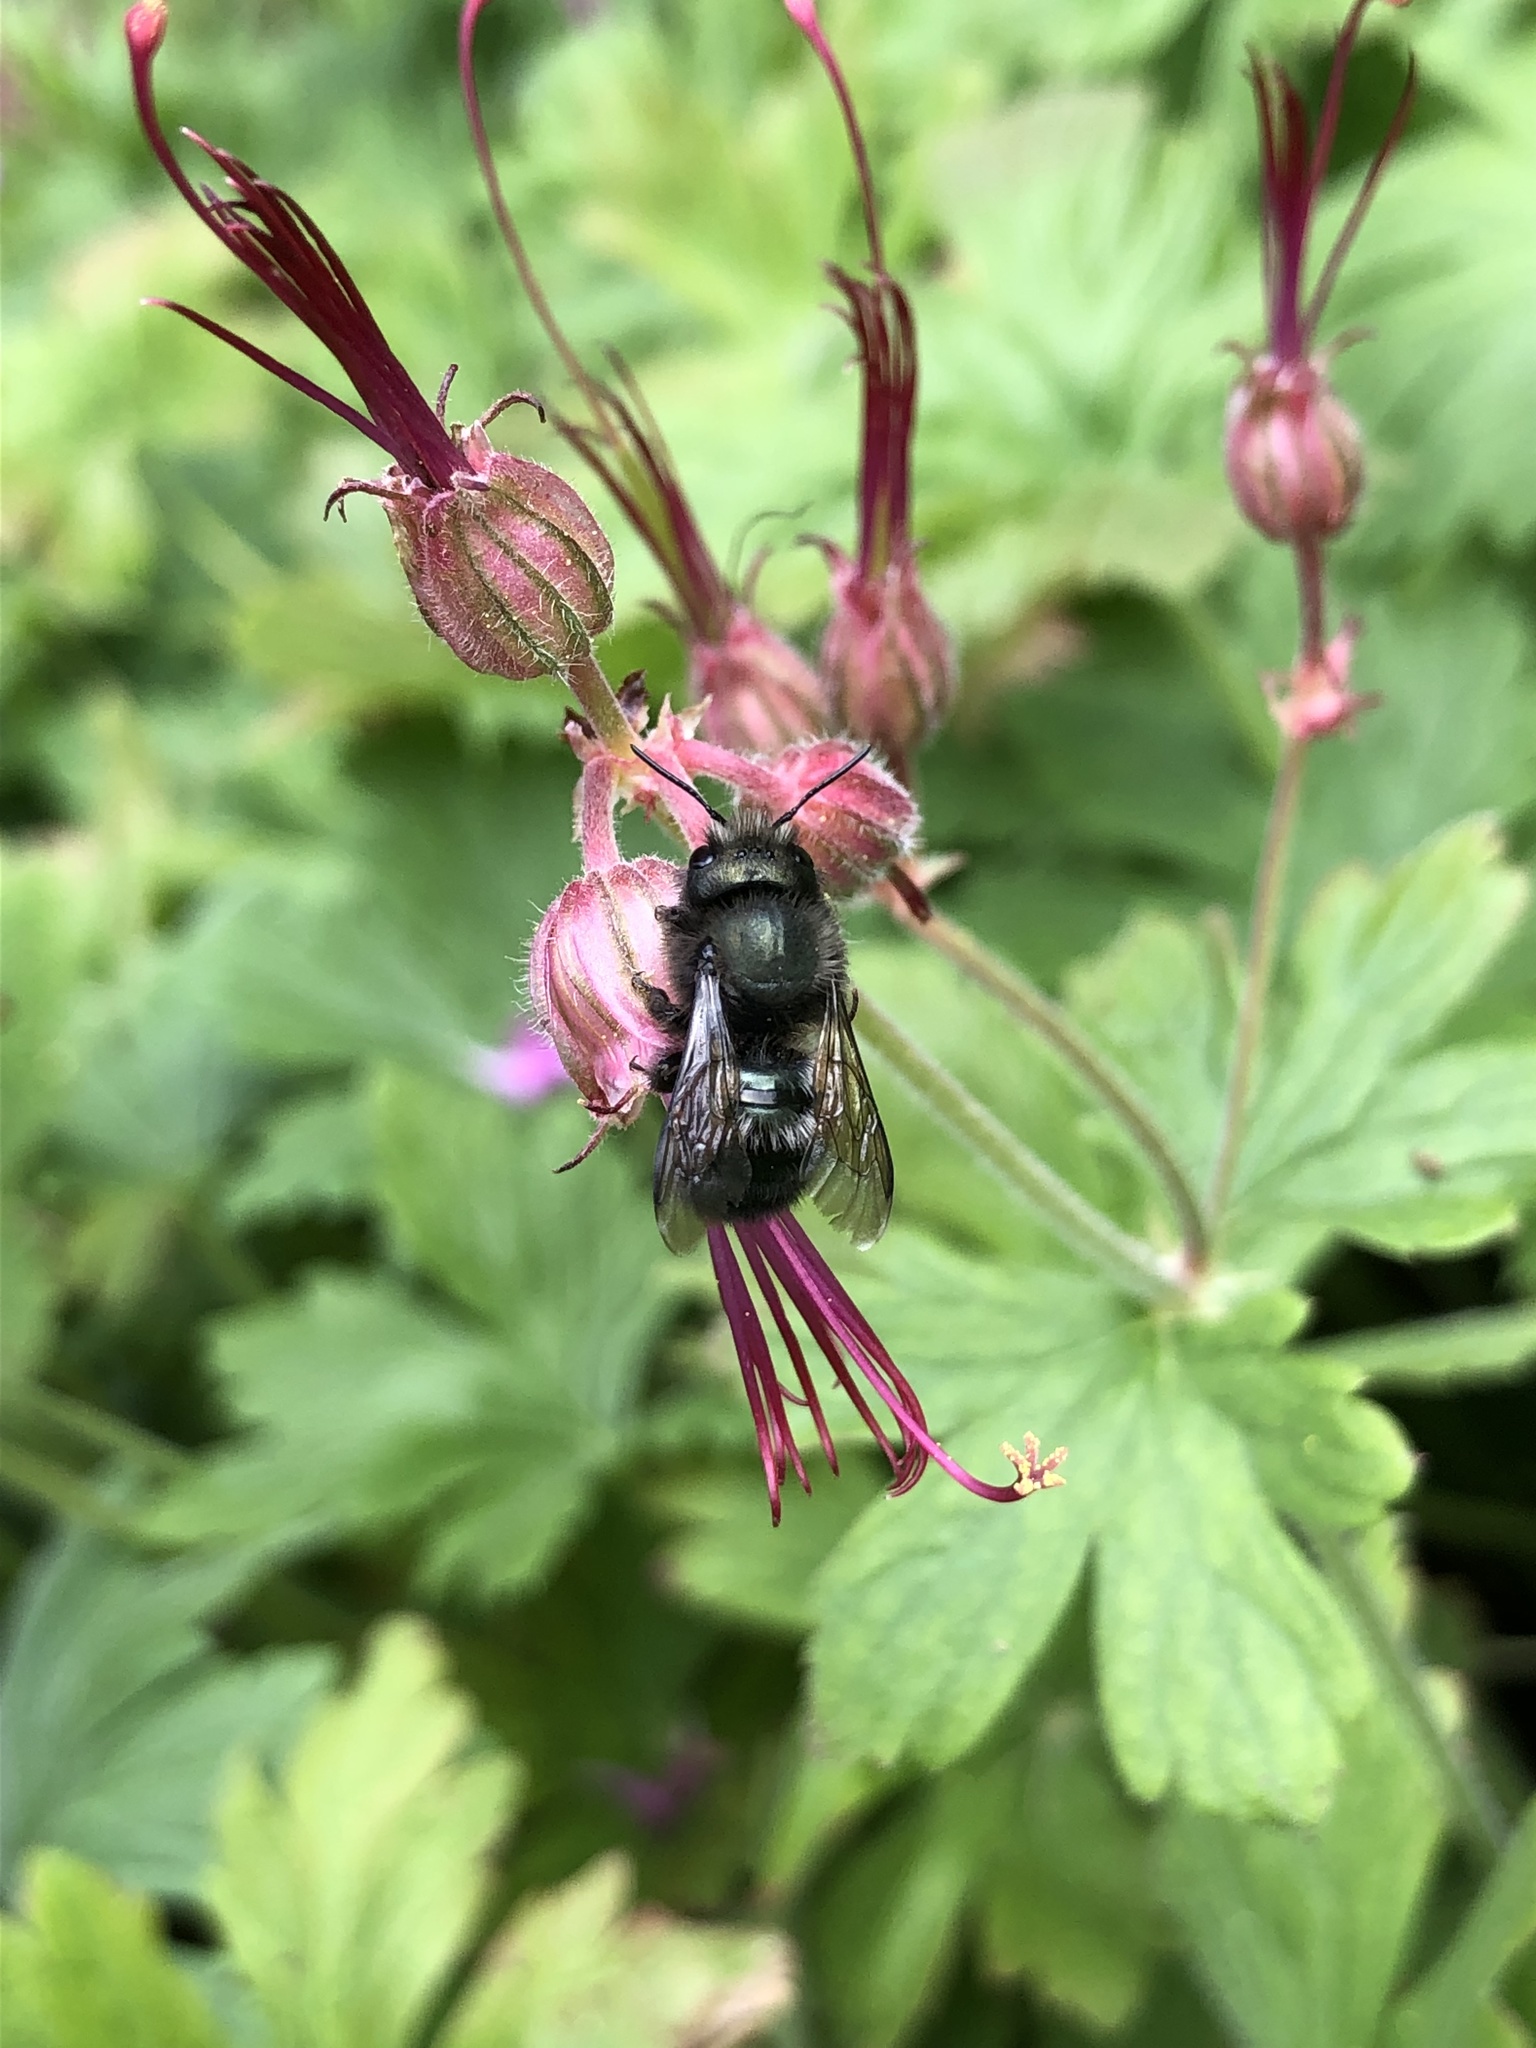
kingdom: Animalia
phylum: Arthropoda
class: Insecta
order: Hymenoptera
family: Megachilidae
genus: Osmia
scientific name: Osmia lignaria
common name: Blue orchard bee
